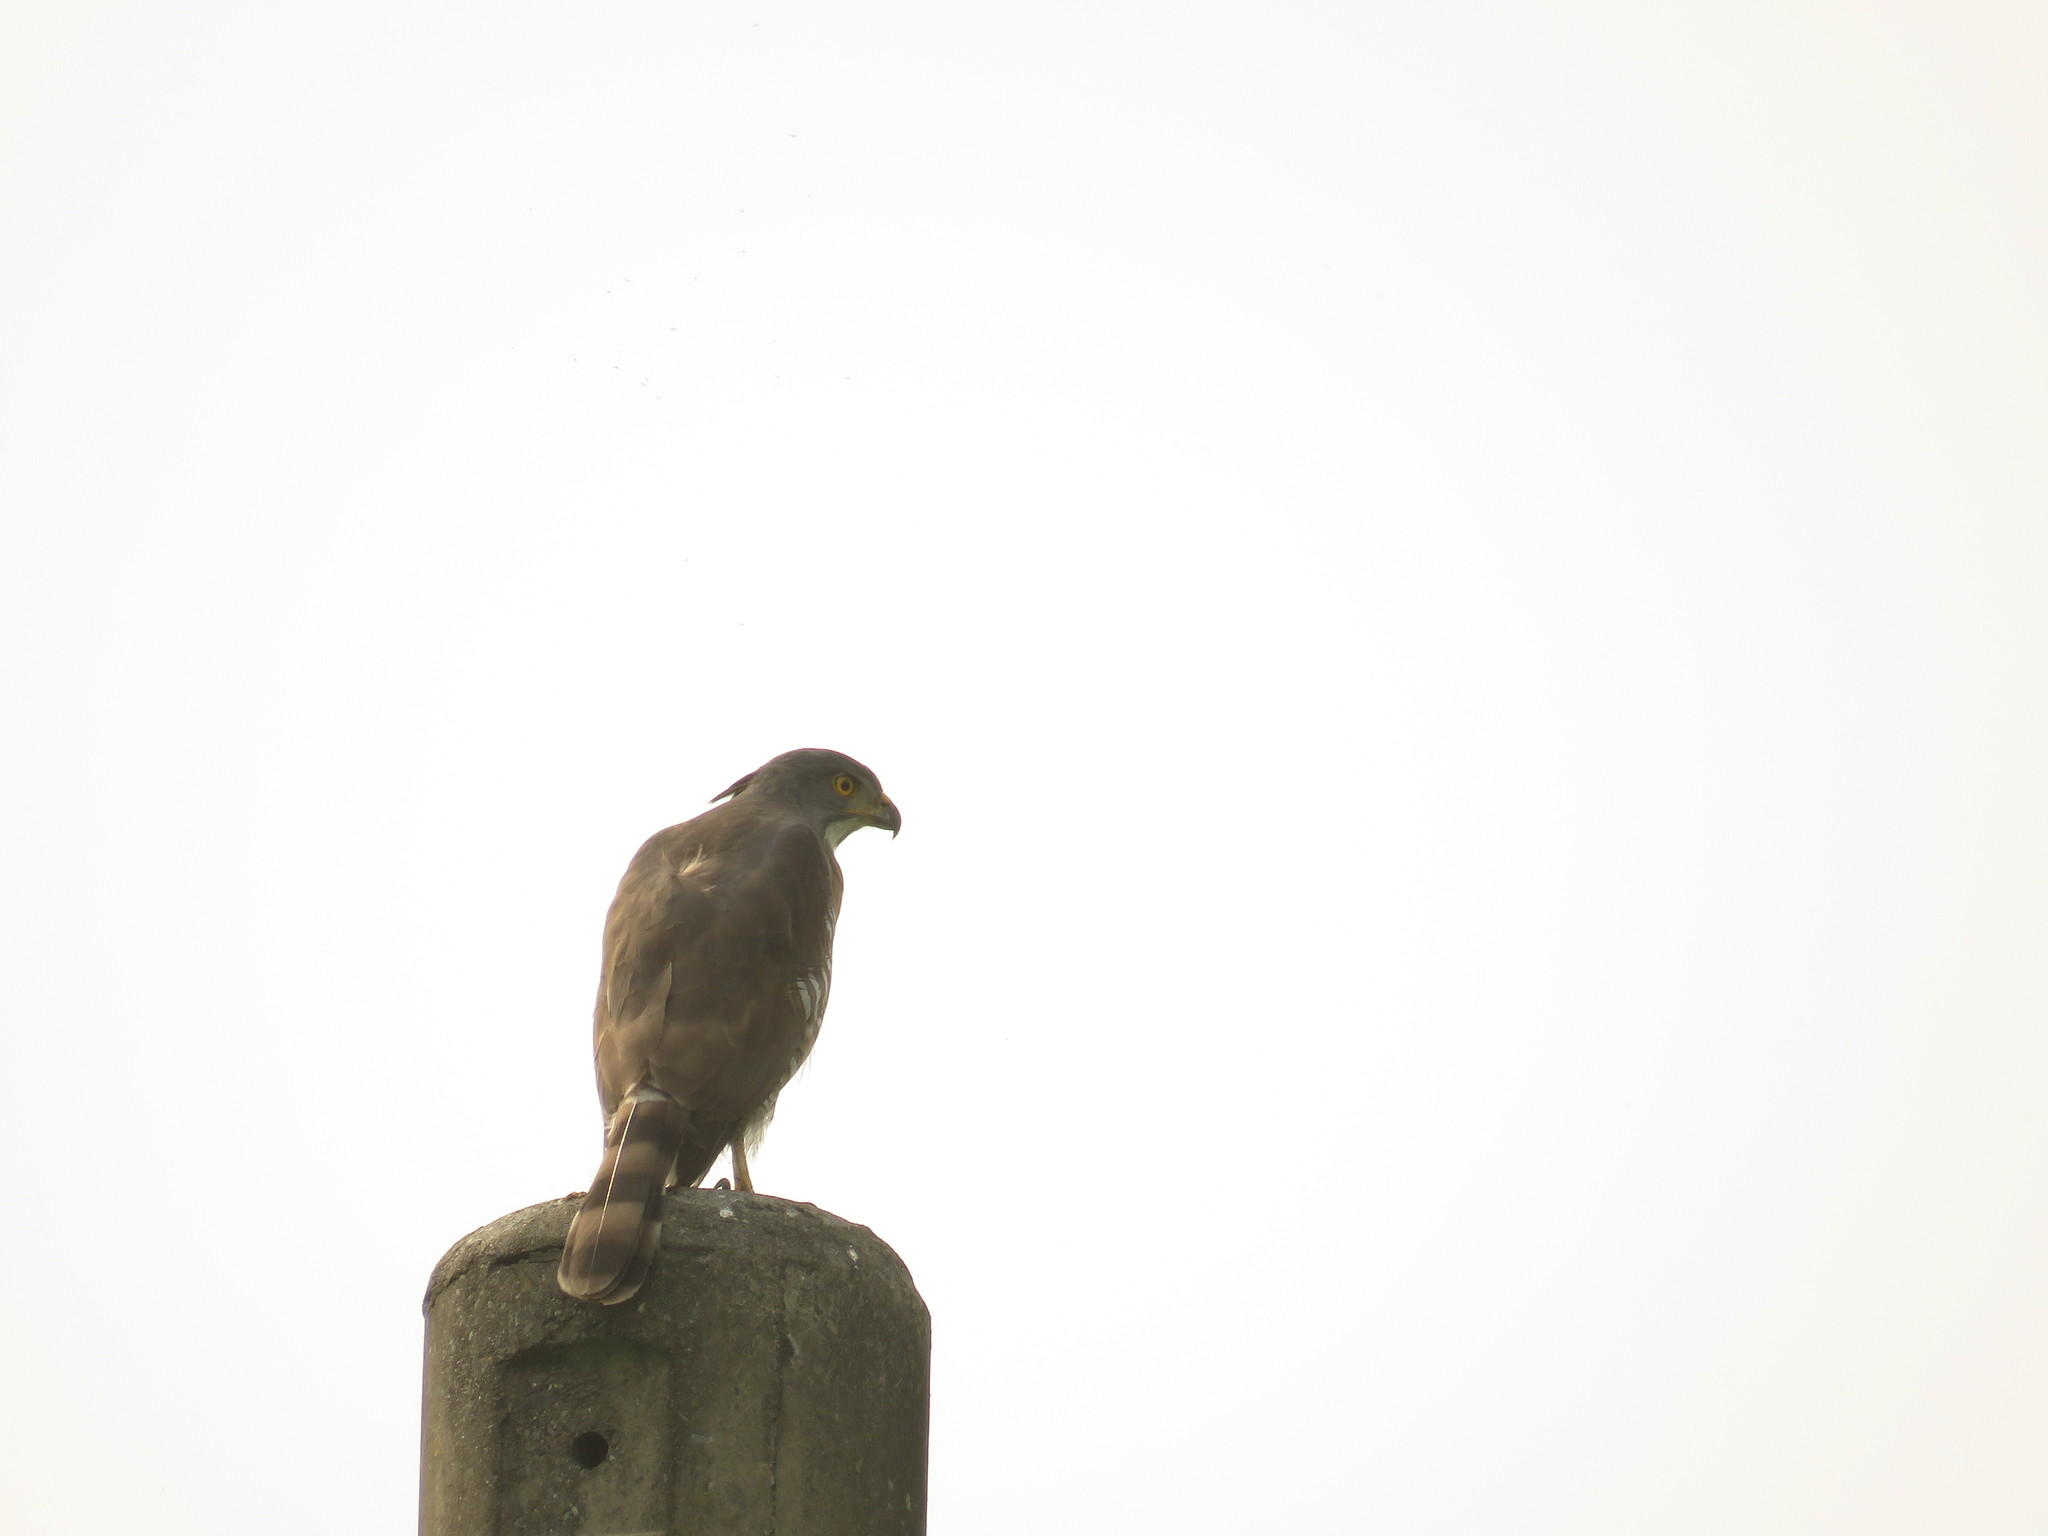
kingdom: Animalia
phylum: Chordata
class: Aves
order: Accipitriformes
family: Accipitridae
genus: Accipiter
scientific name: Accipiter trivirgatus
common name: Crested goshawk
